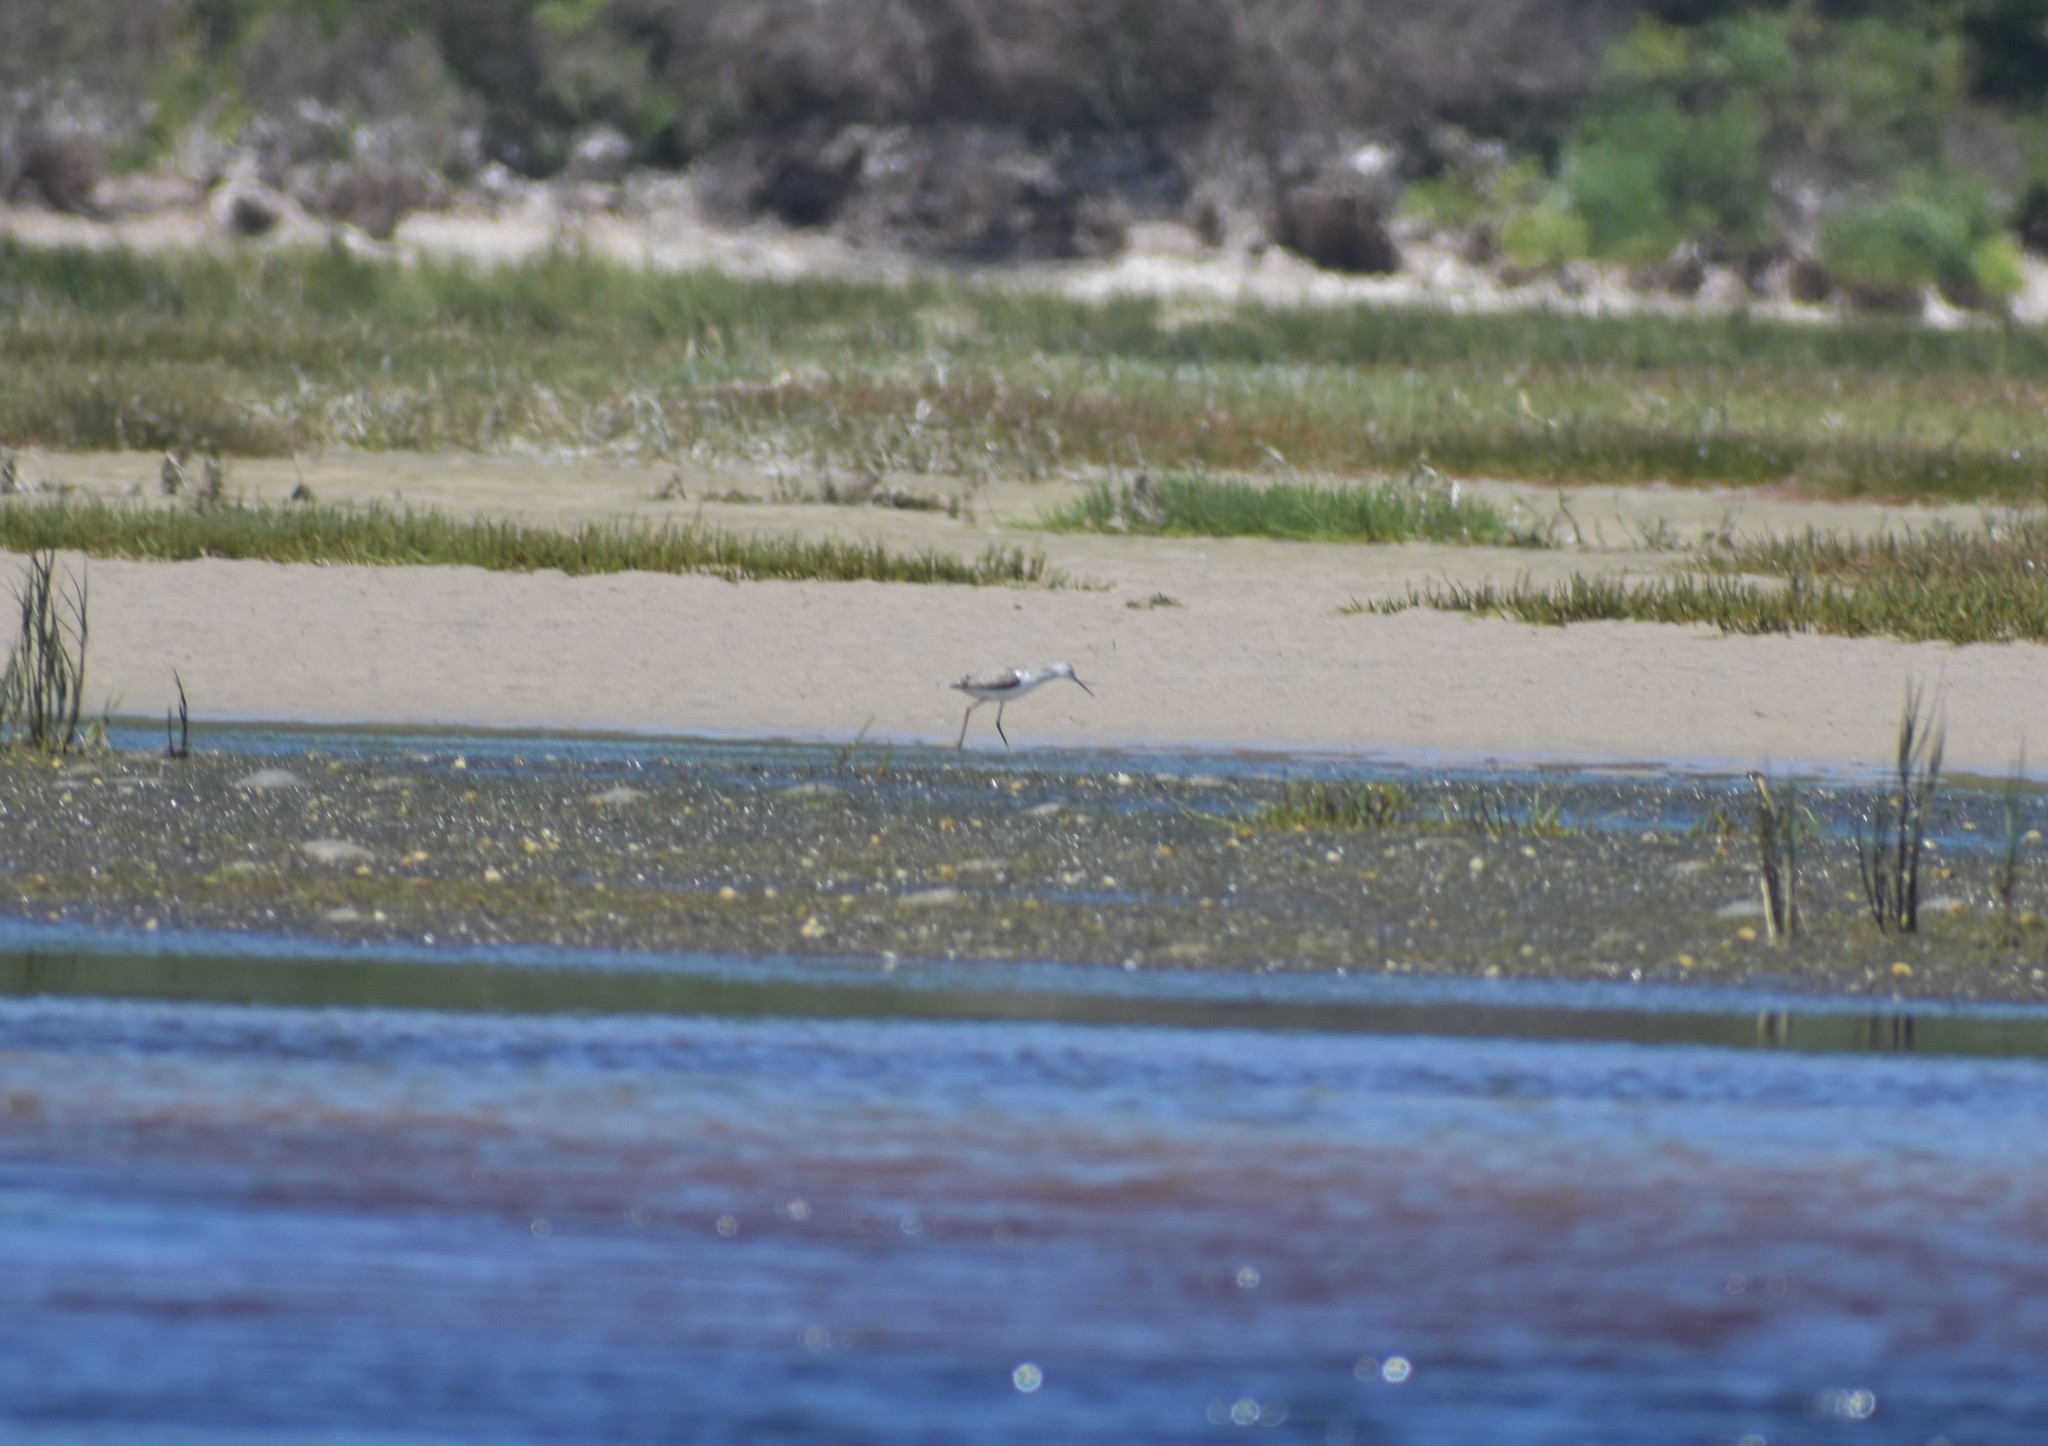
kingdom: Animalia
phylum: Chordata
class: Aves
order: Charadriiformes
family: Scolopacidae
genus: Tringa
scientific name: Tringa stagnatilis
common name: Marsh sandpiper
